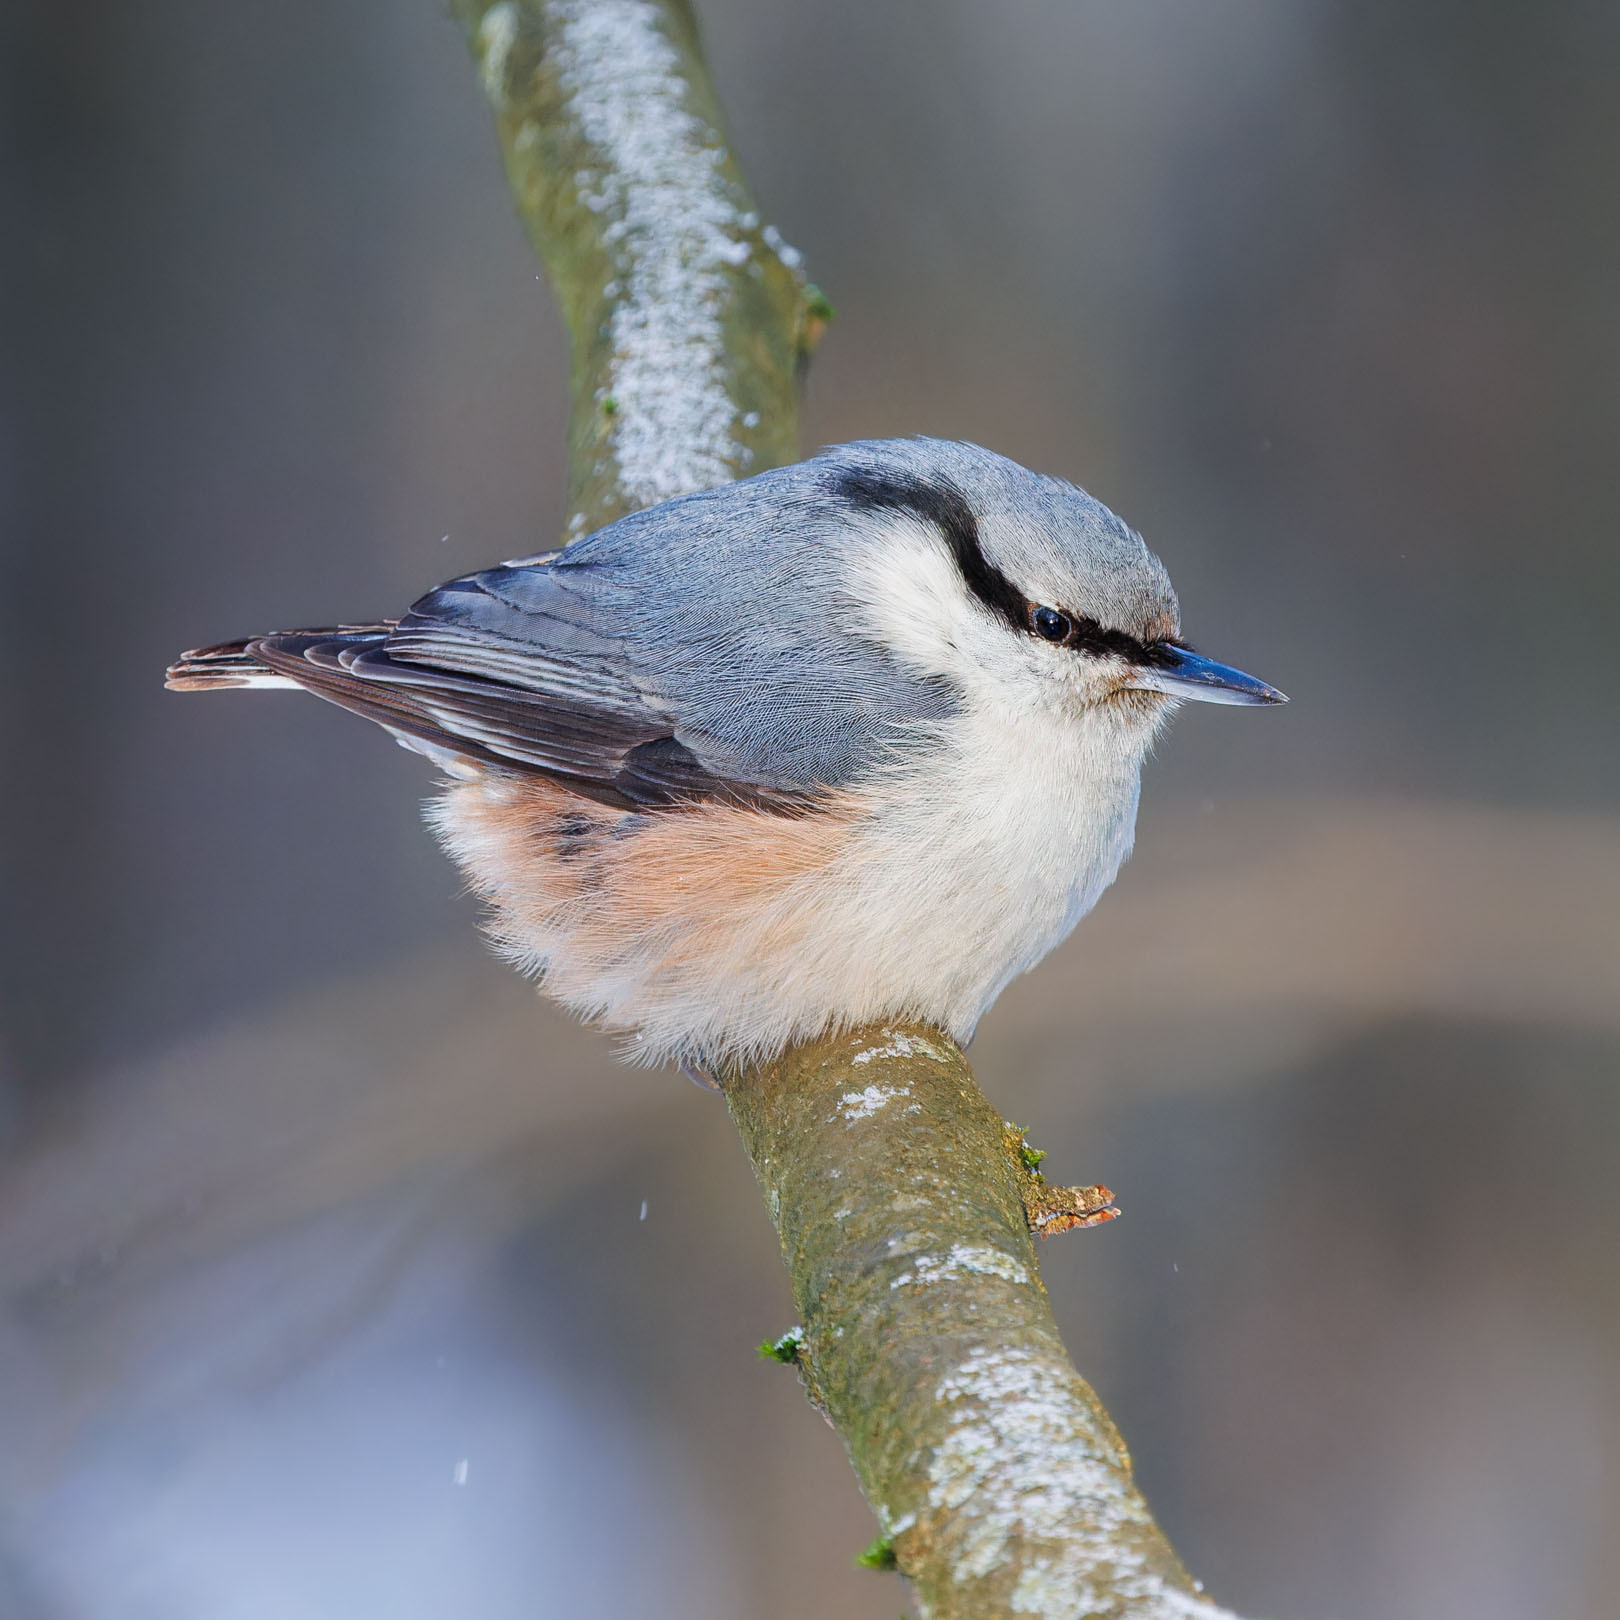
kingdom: Animalia
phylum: Chordata
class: Aves
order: Passeriformes
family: Sittidae
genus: Sitta
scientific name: Sitta europaea
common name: Eurasian nuthatch
